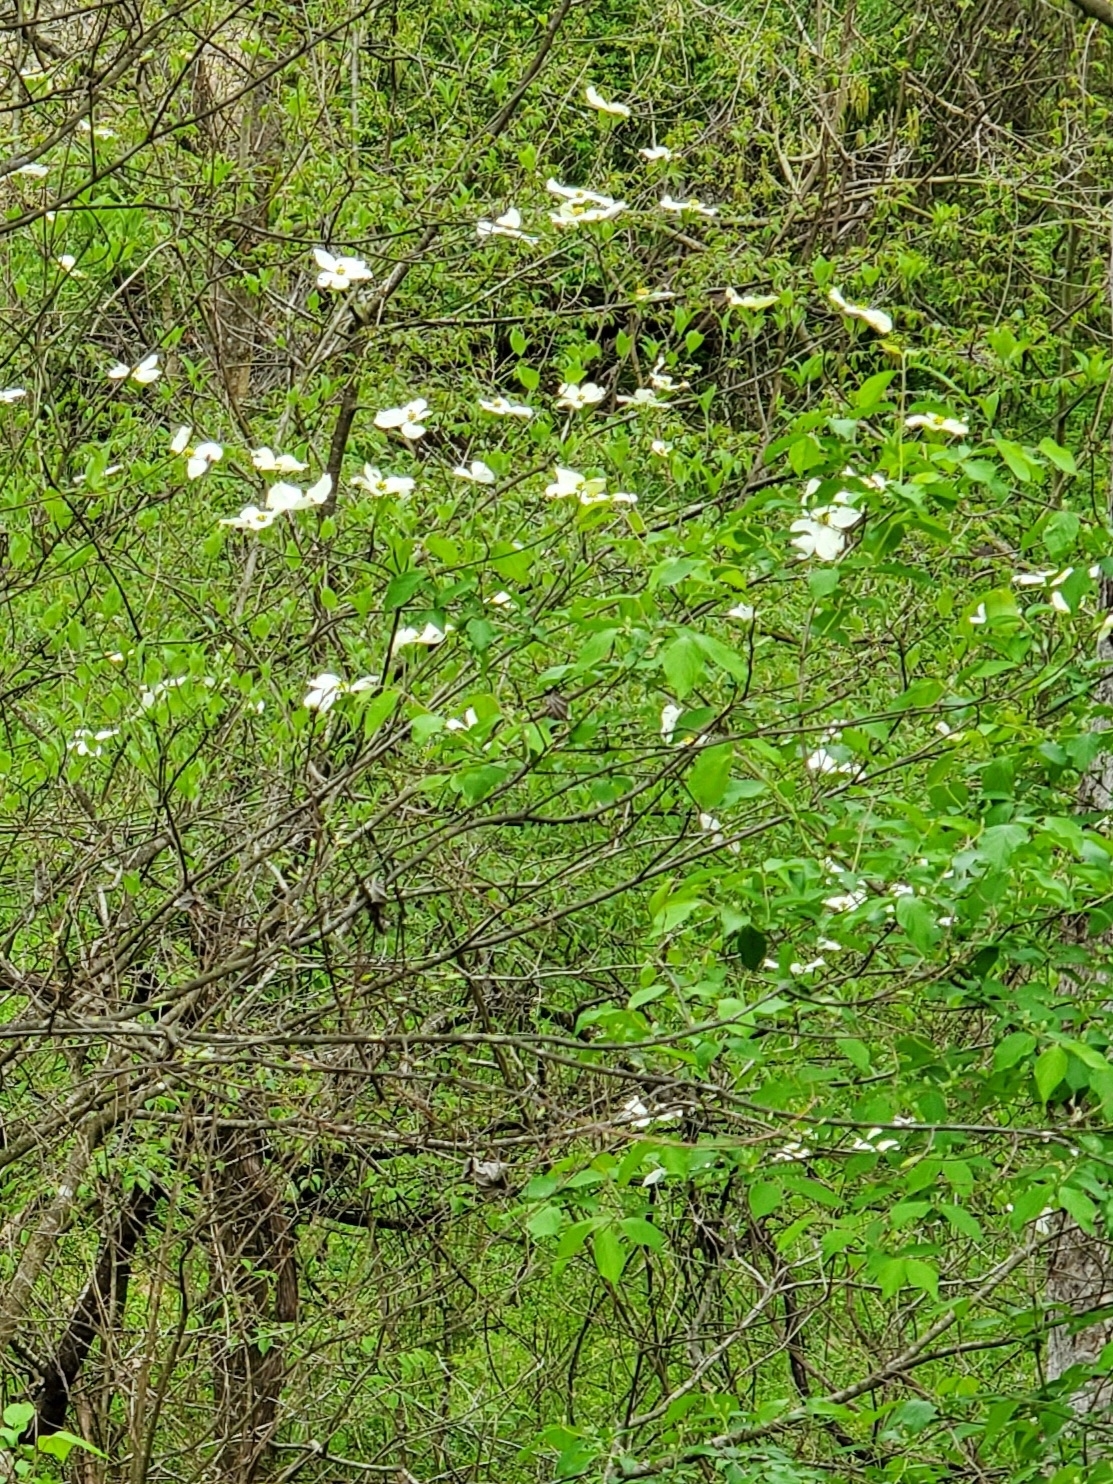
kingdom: Plantae
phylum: Tracheophyta
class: Magnoliopsida
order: Cornales
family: Cornaceae
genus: Cornus
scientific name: Cornus florida
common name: Flowering dogwood
